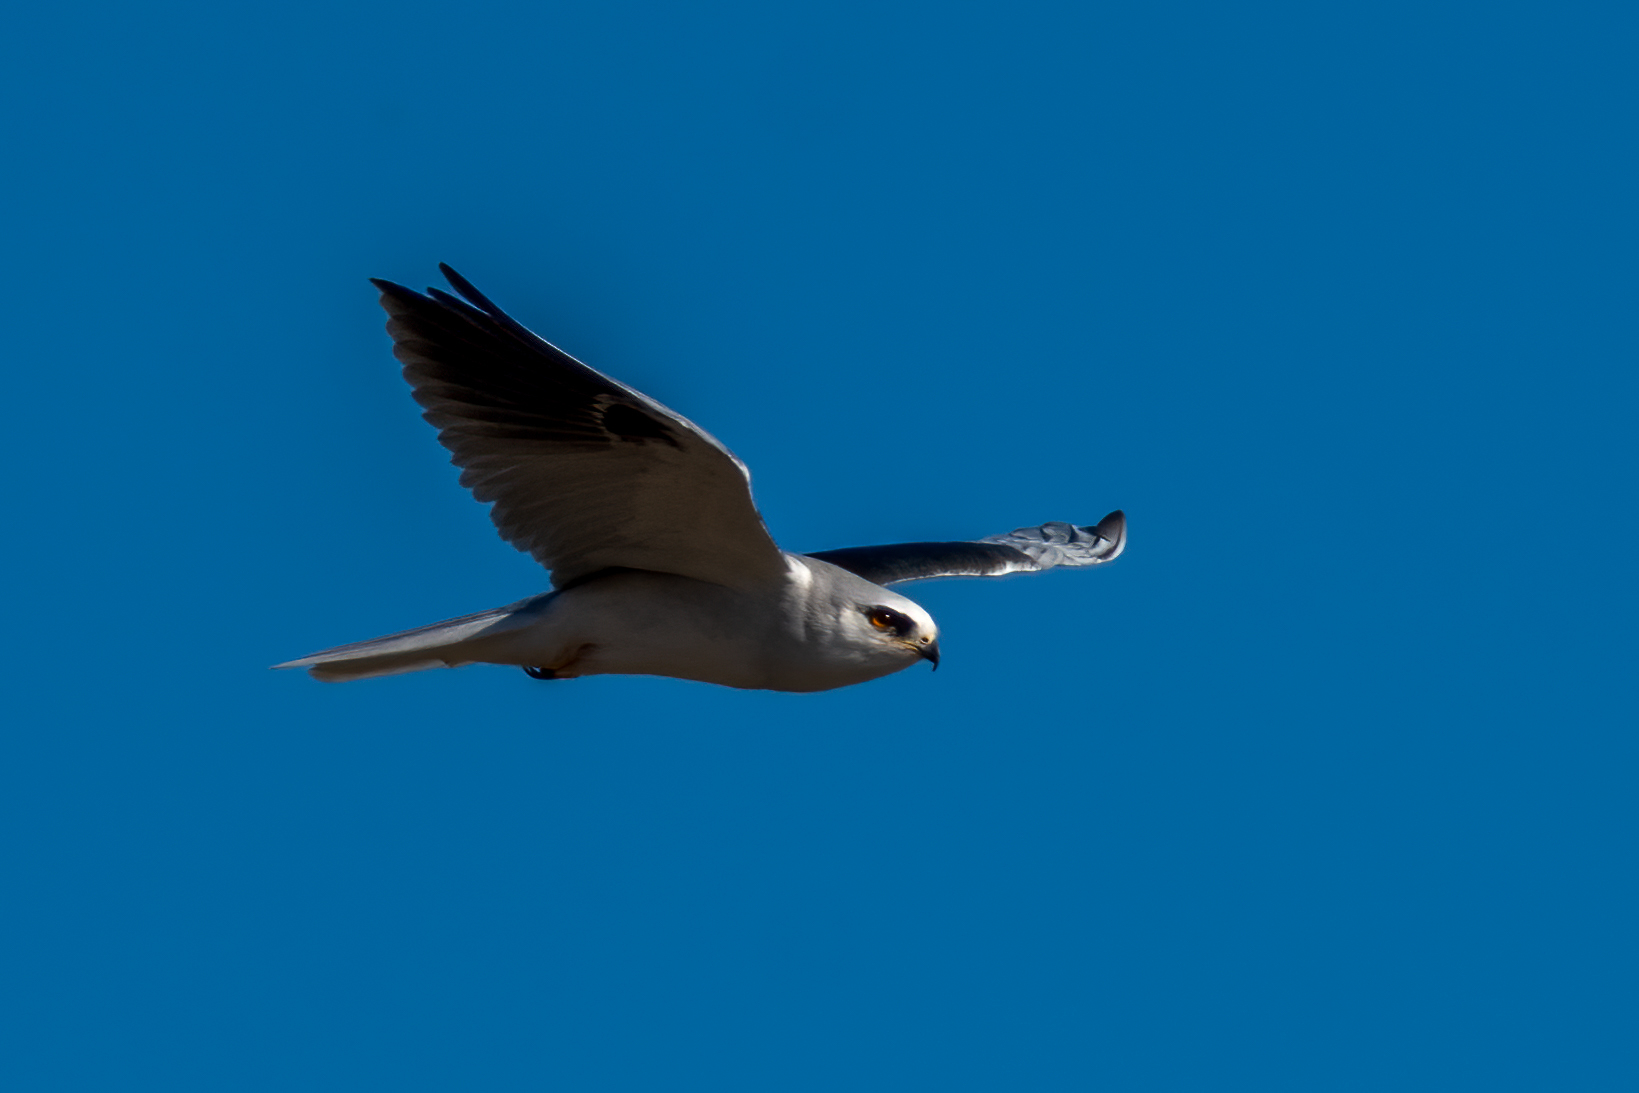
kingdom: Animalia
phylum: Chordata
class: Aves
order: Accipitriformes
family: Accipitridae
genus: Elanus
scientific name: Elanus leucurus
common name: White-tailed kite
